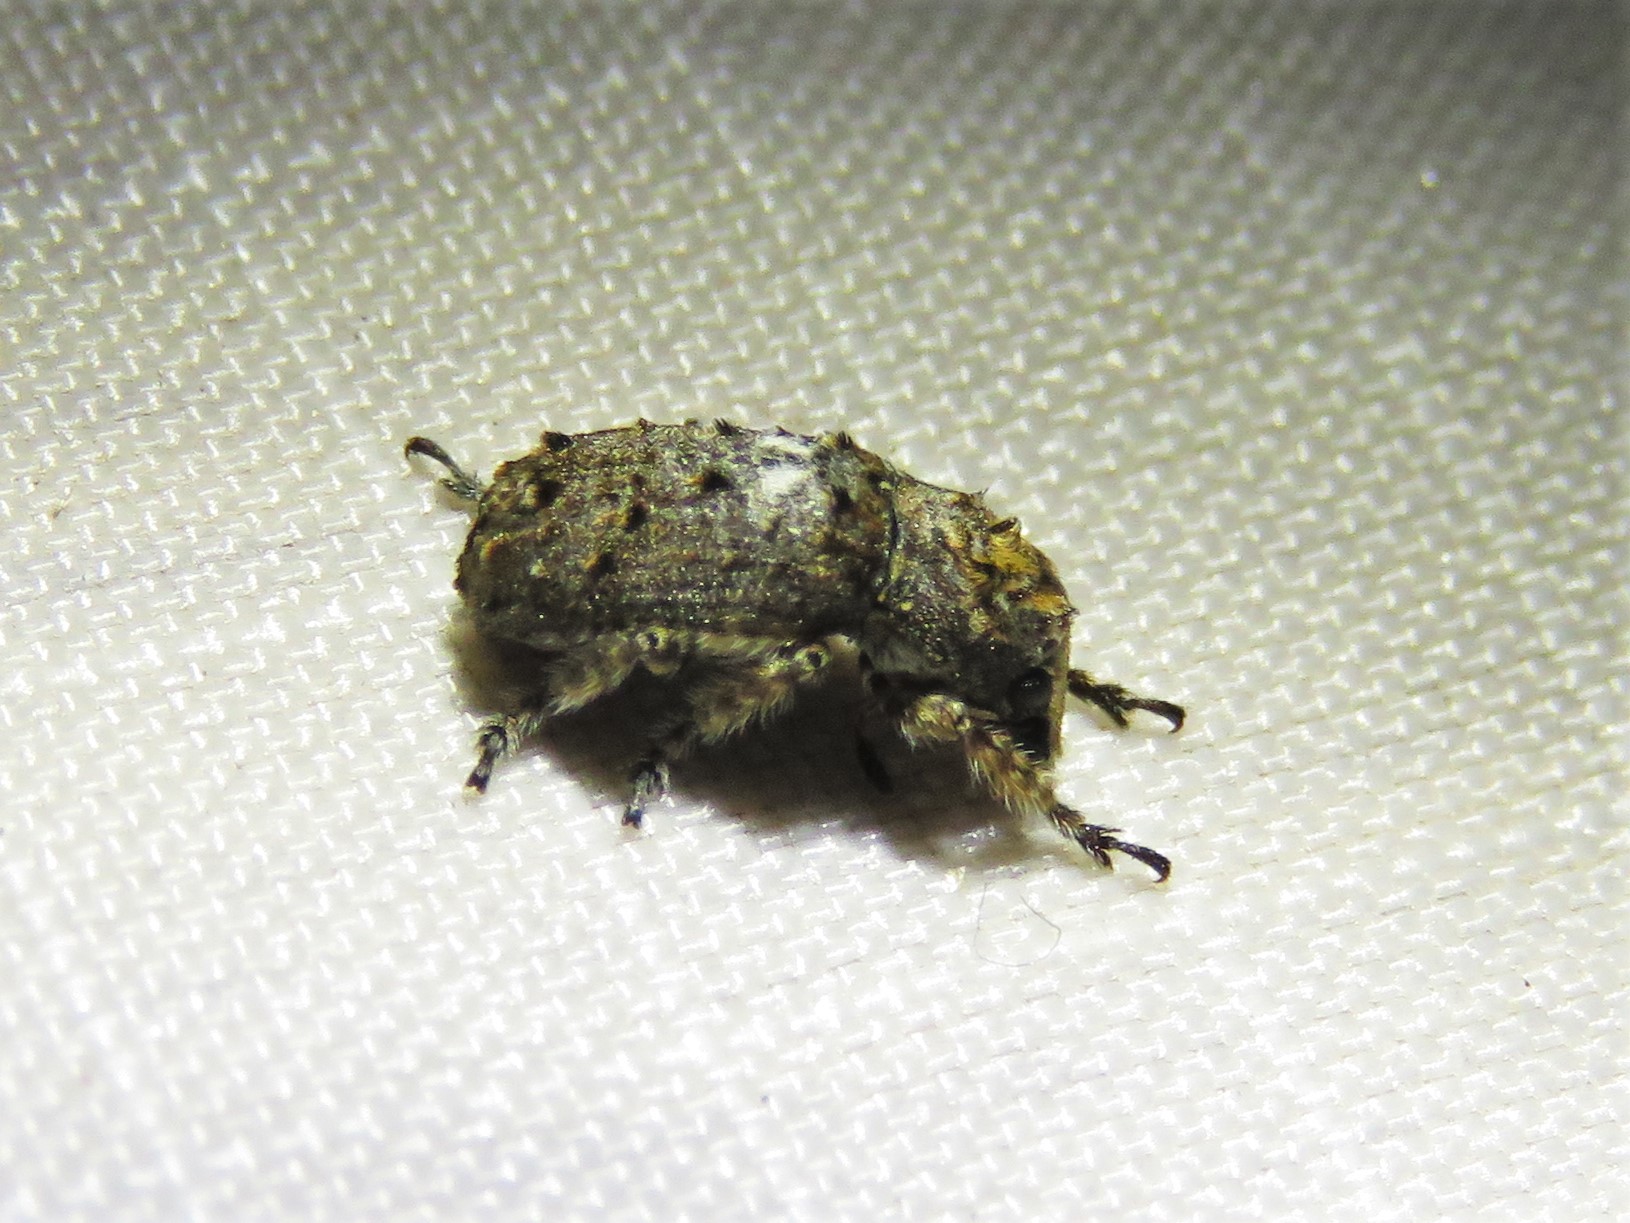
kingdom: Animalia
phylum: Arthropoda
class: Insecta
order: Coleoptera
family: Anthribidae
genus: Toxonotus
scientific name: Toxonotus cornutus
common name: Fungus weevil
